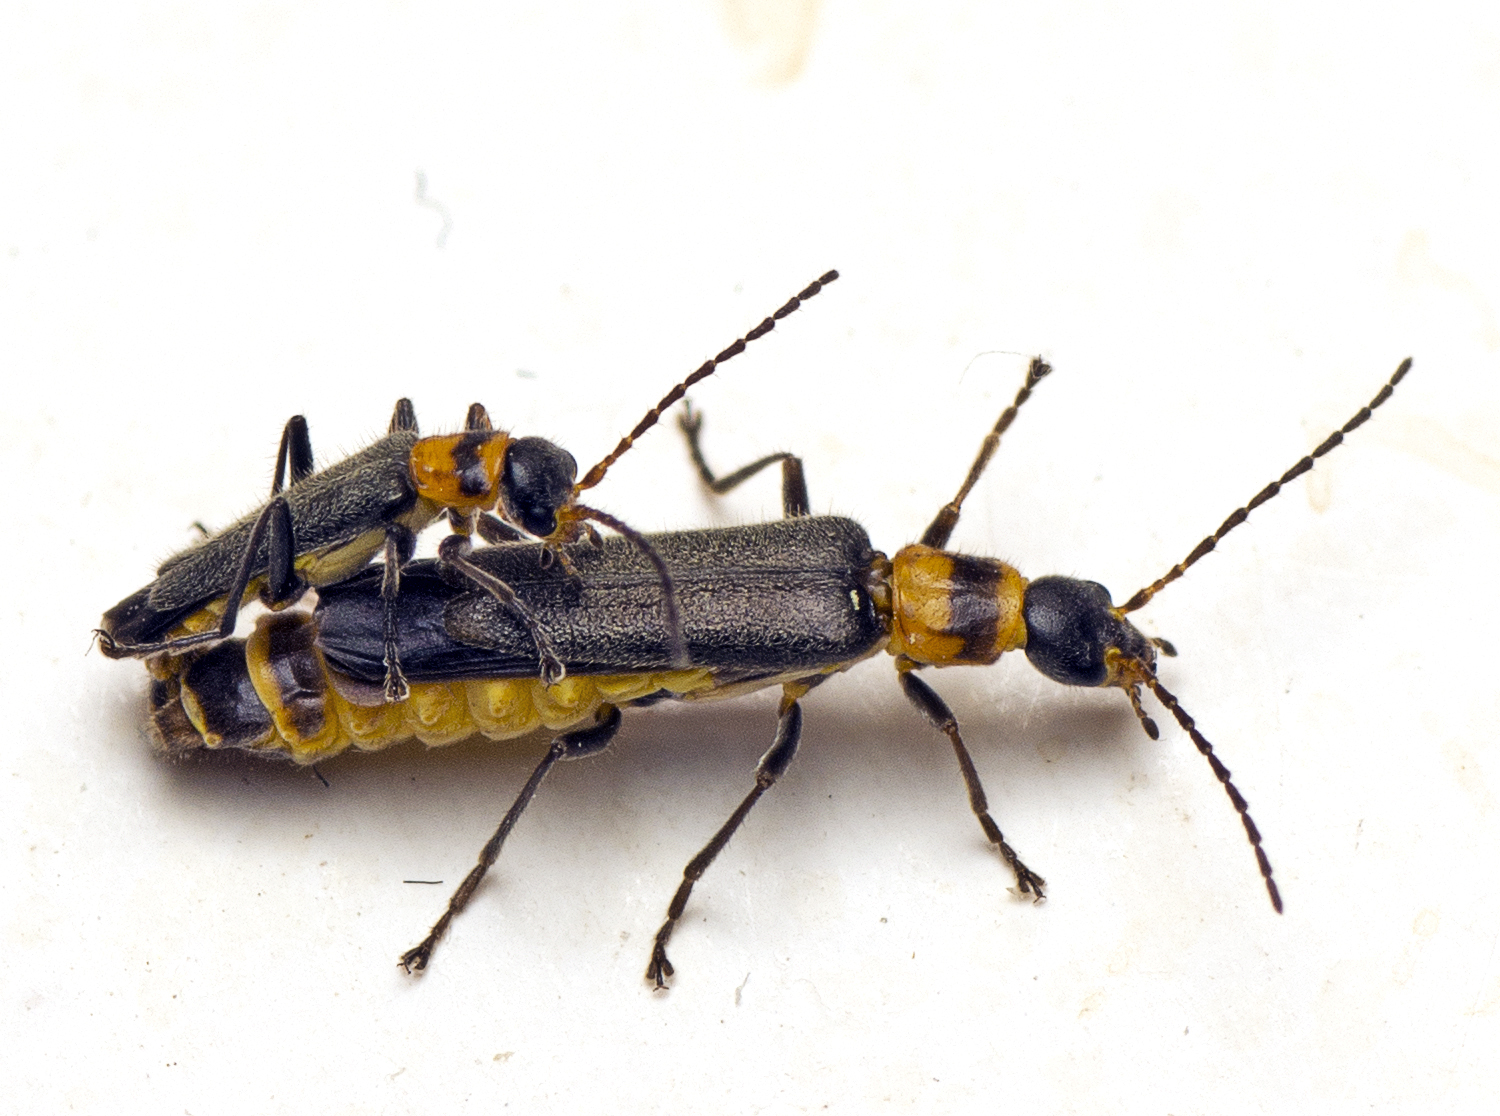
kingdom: Animalia
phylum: Arthropoda
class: Insecta
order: Coleoptera
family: Cantharidae
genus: Chauliognathus
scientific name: Chauliognathus
